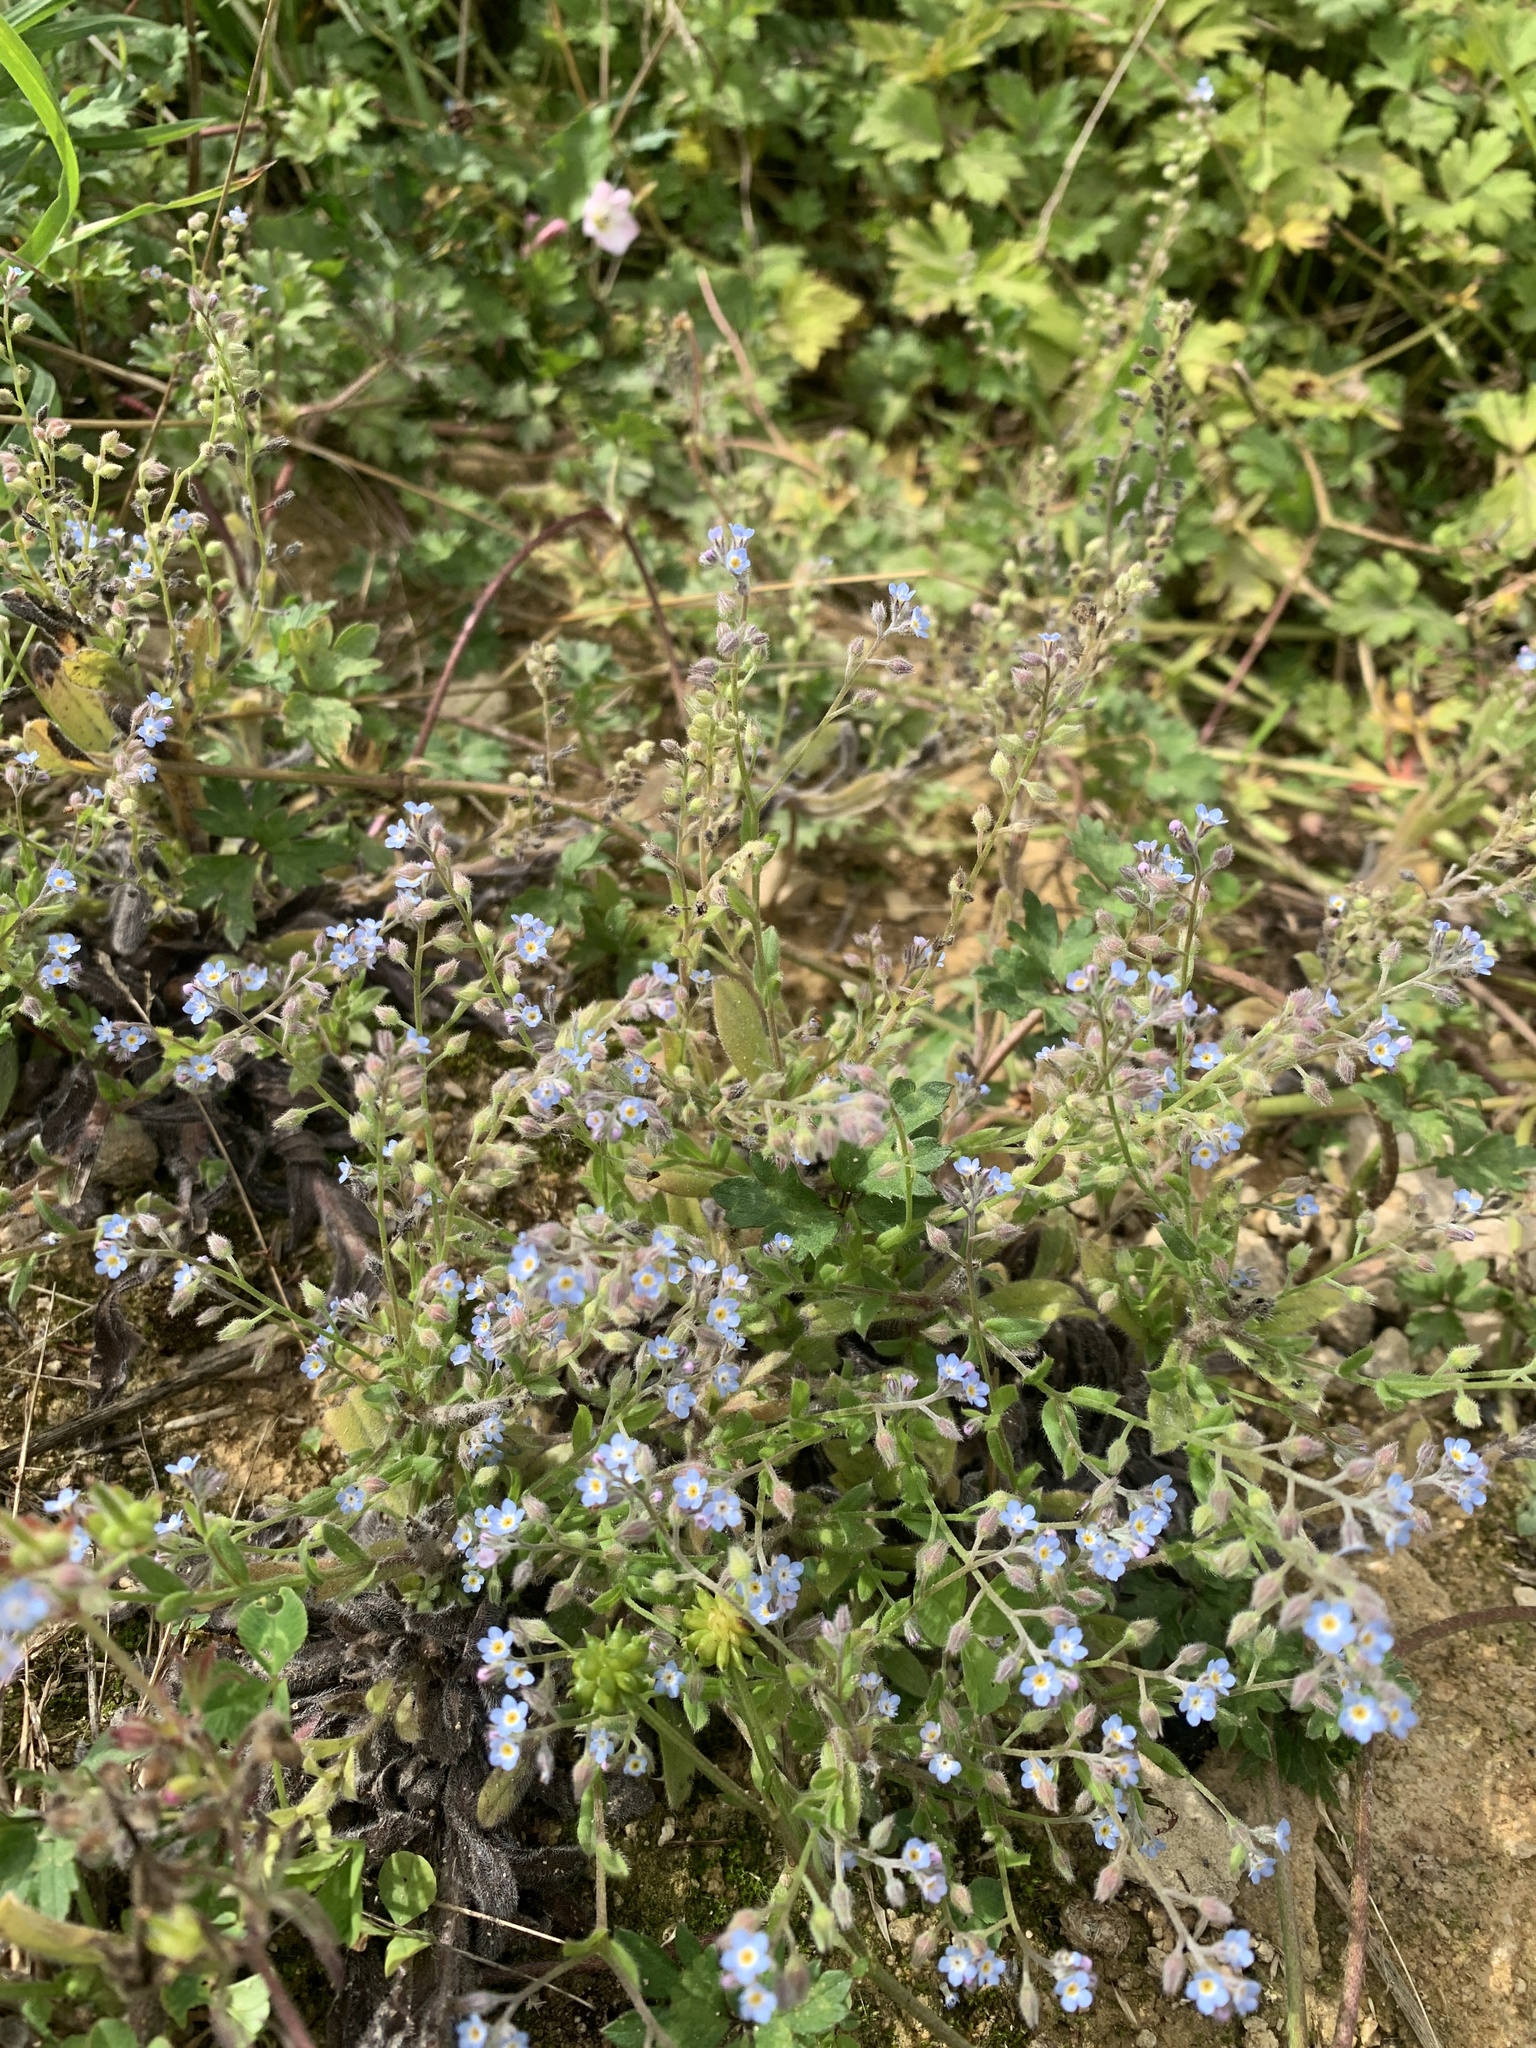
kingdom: Plantae
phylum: Tracheophyta
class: Magnoliopsida
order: Boraginales
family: Boraginaceae
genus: Myosotis
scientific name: Myosotis arvensis
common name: Field forget-me-not
